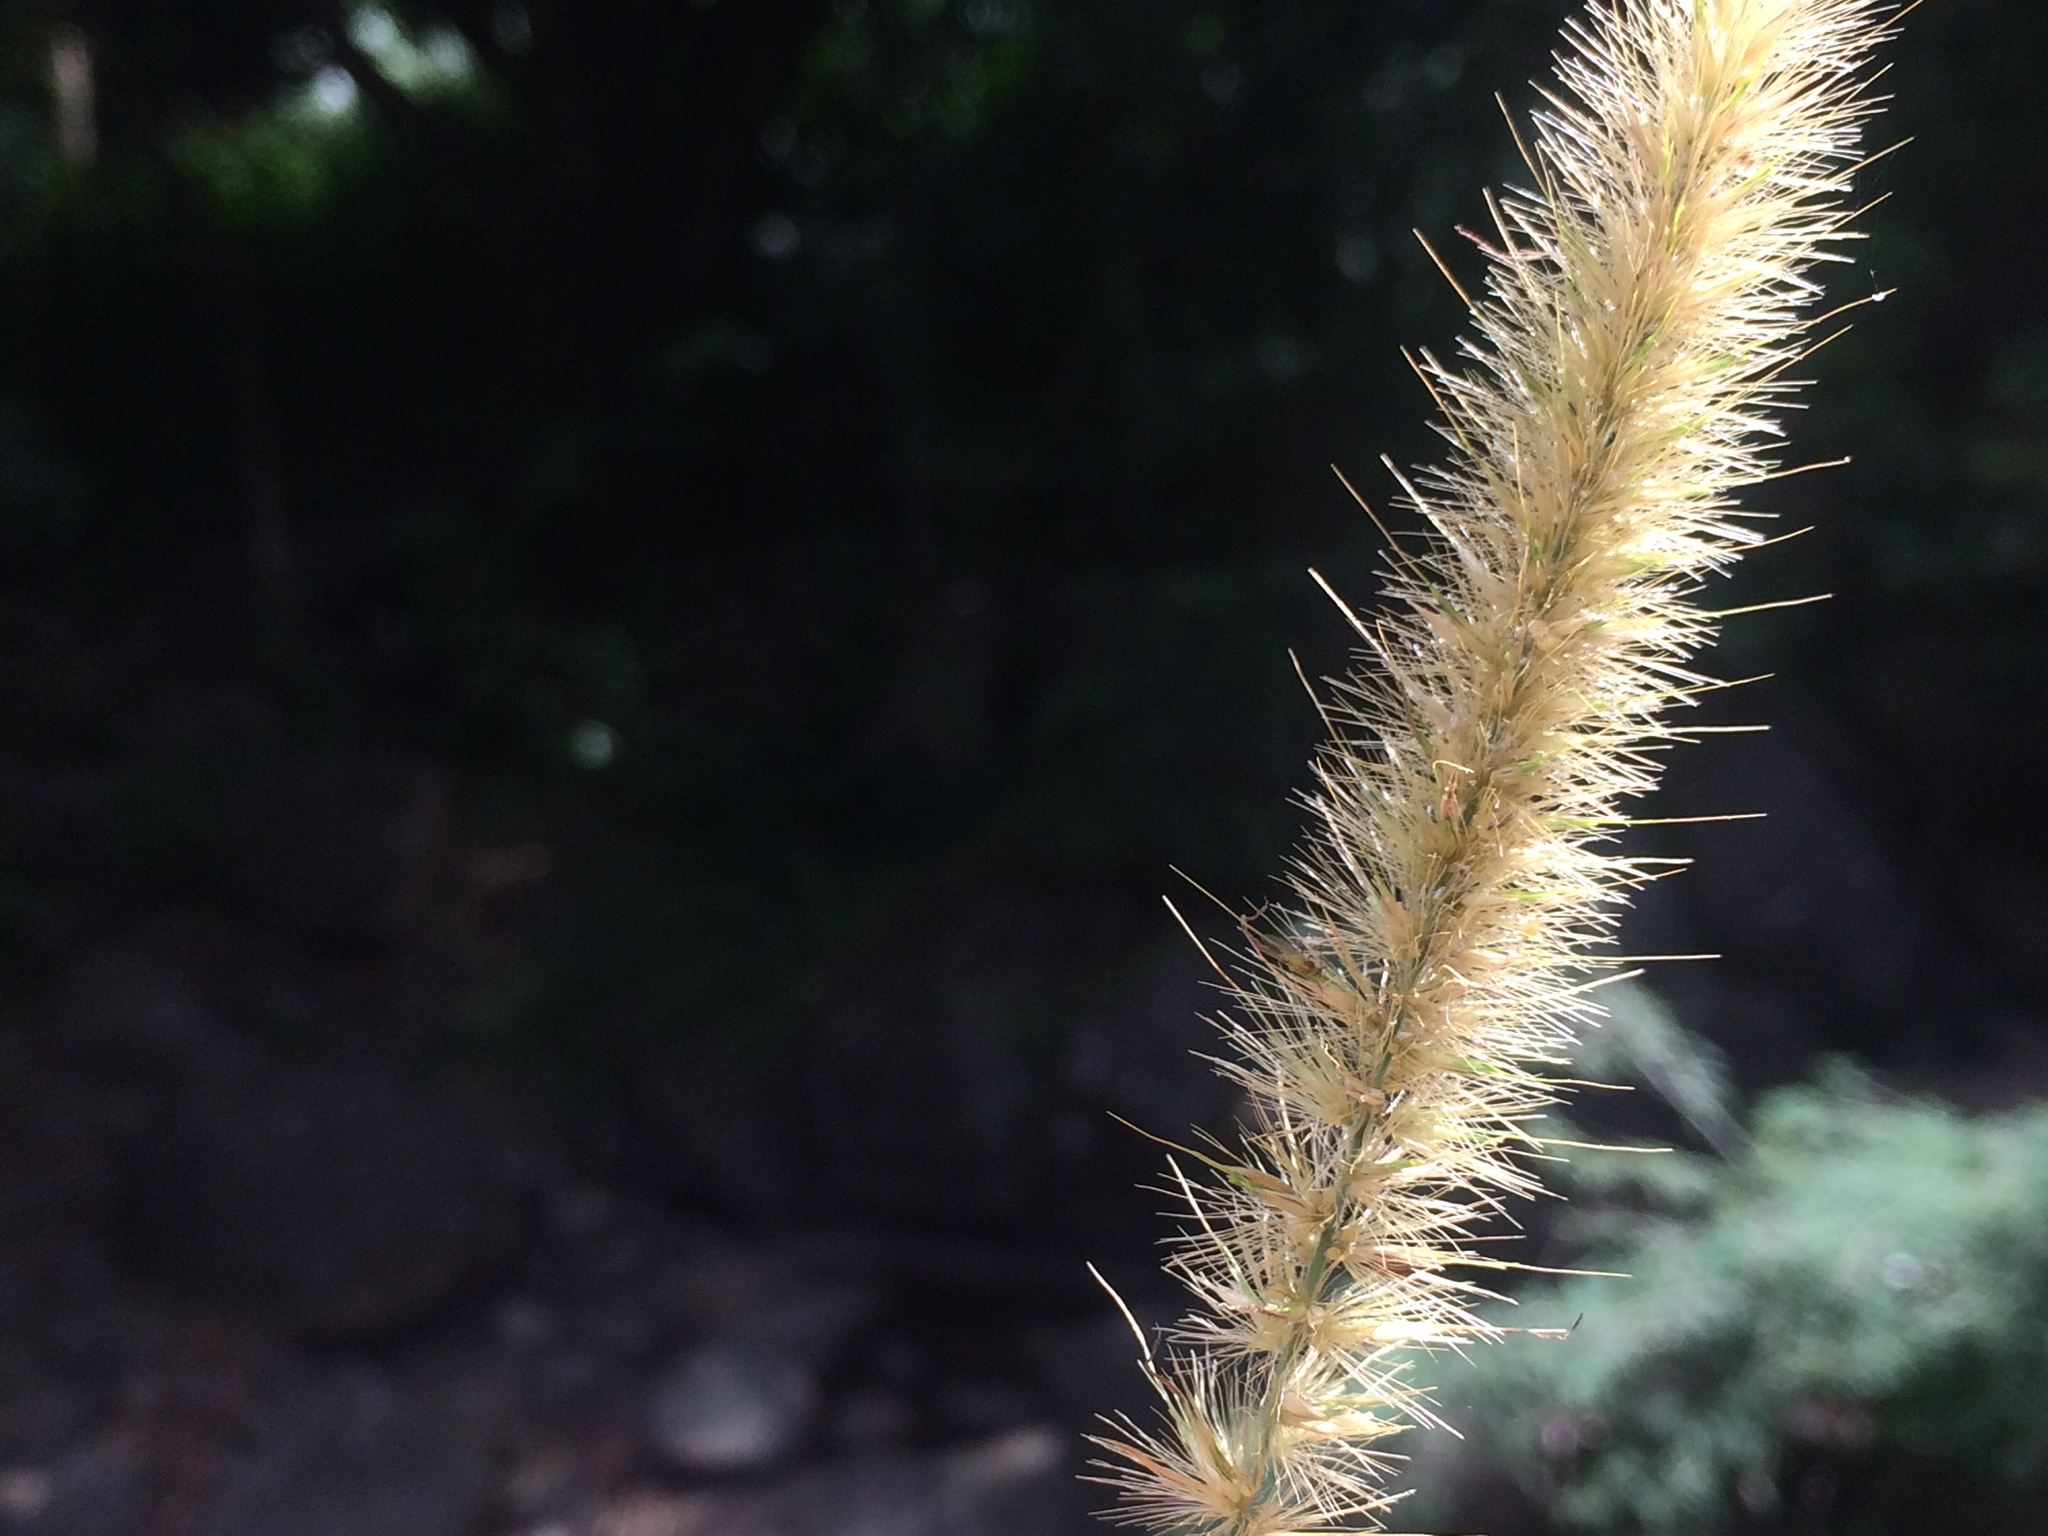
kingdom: Plantae
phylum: Tracheophyta
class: Liliopsida
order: Poales
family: Poaceae
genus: Cenchrus
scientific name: Cenchrus purpureus
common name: Elephant grass
